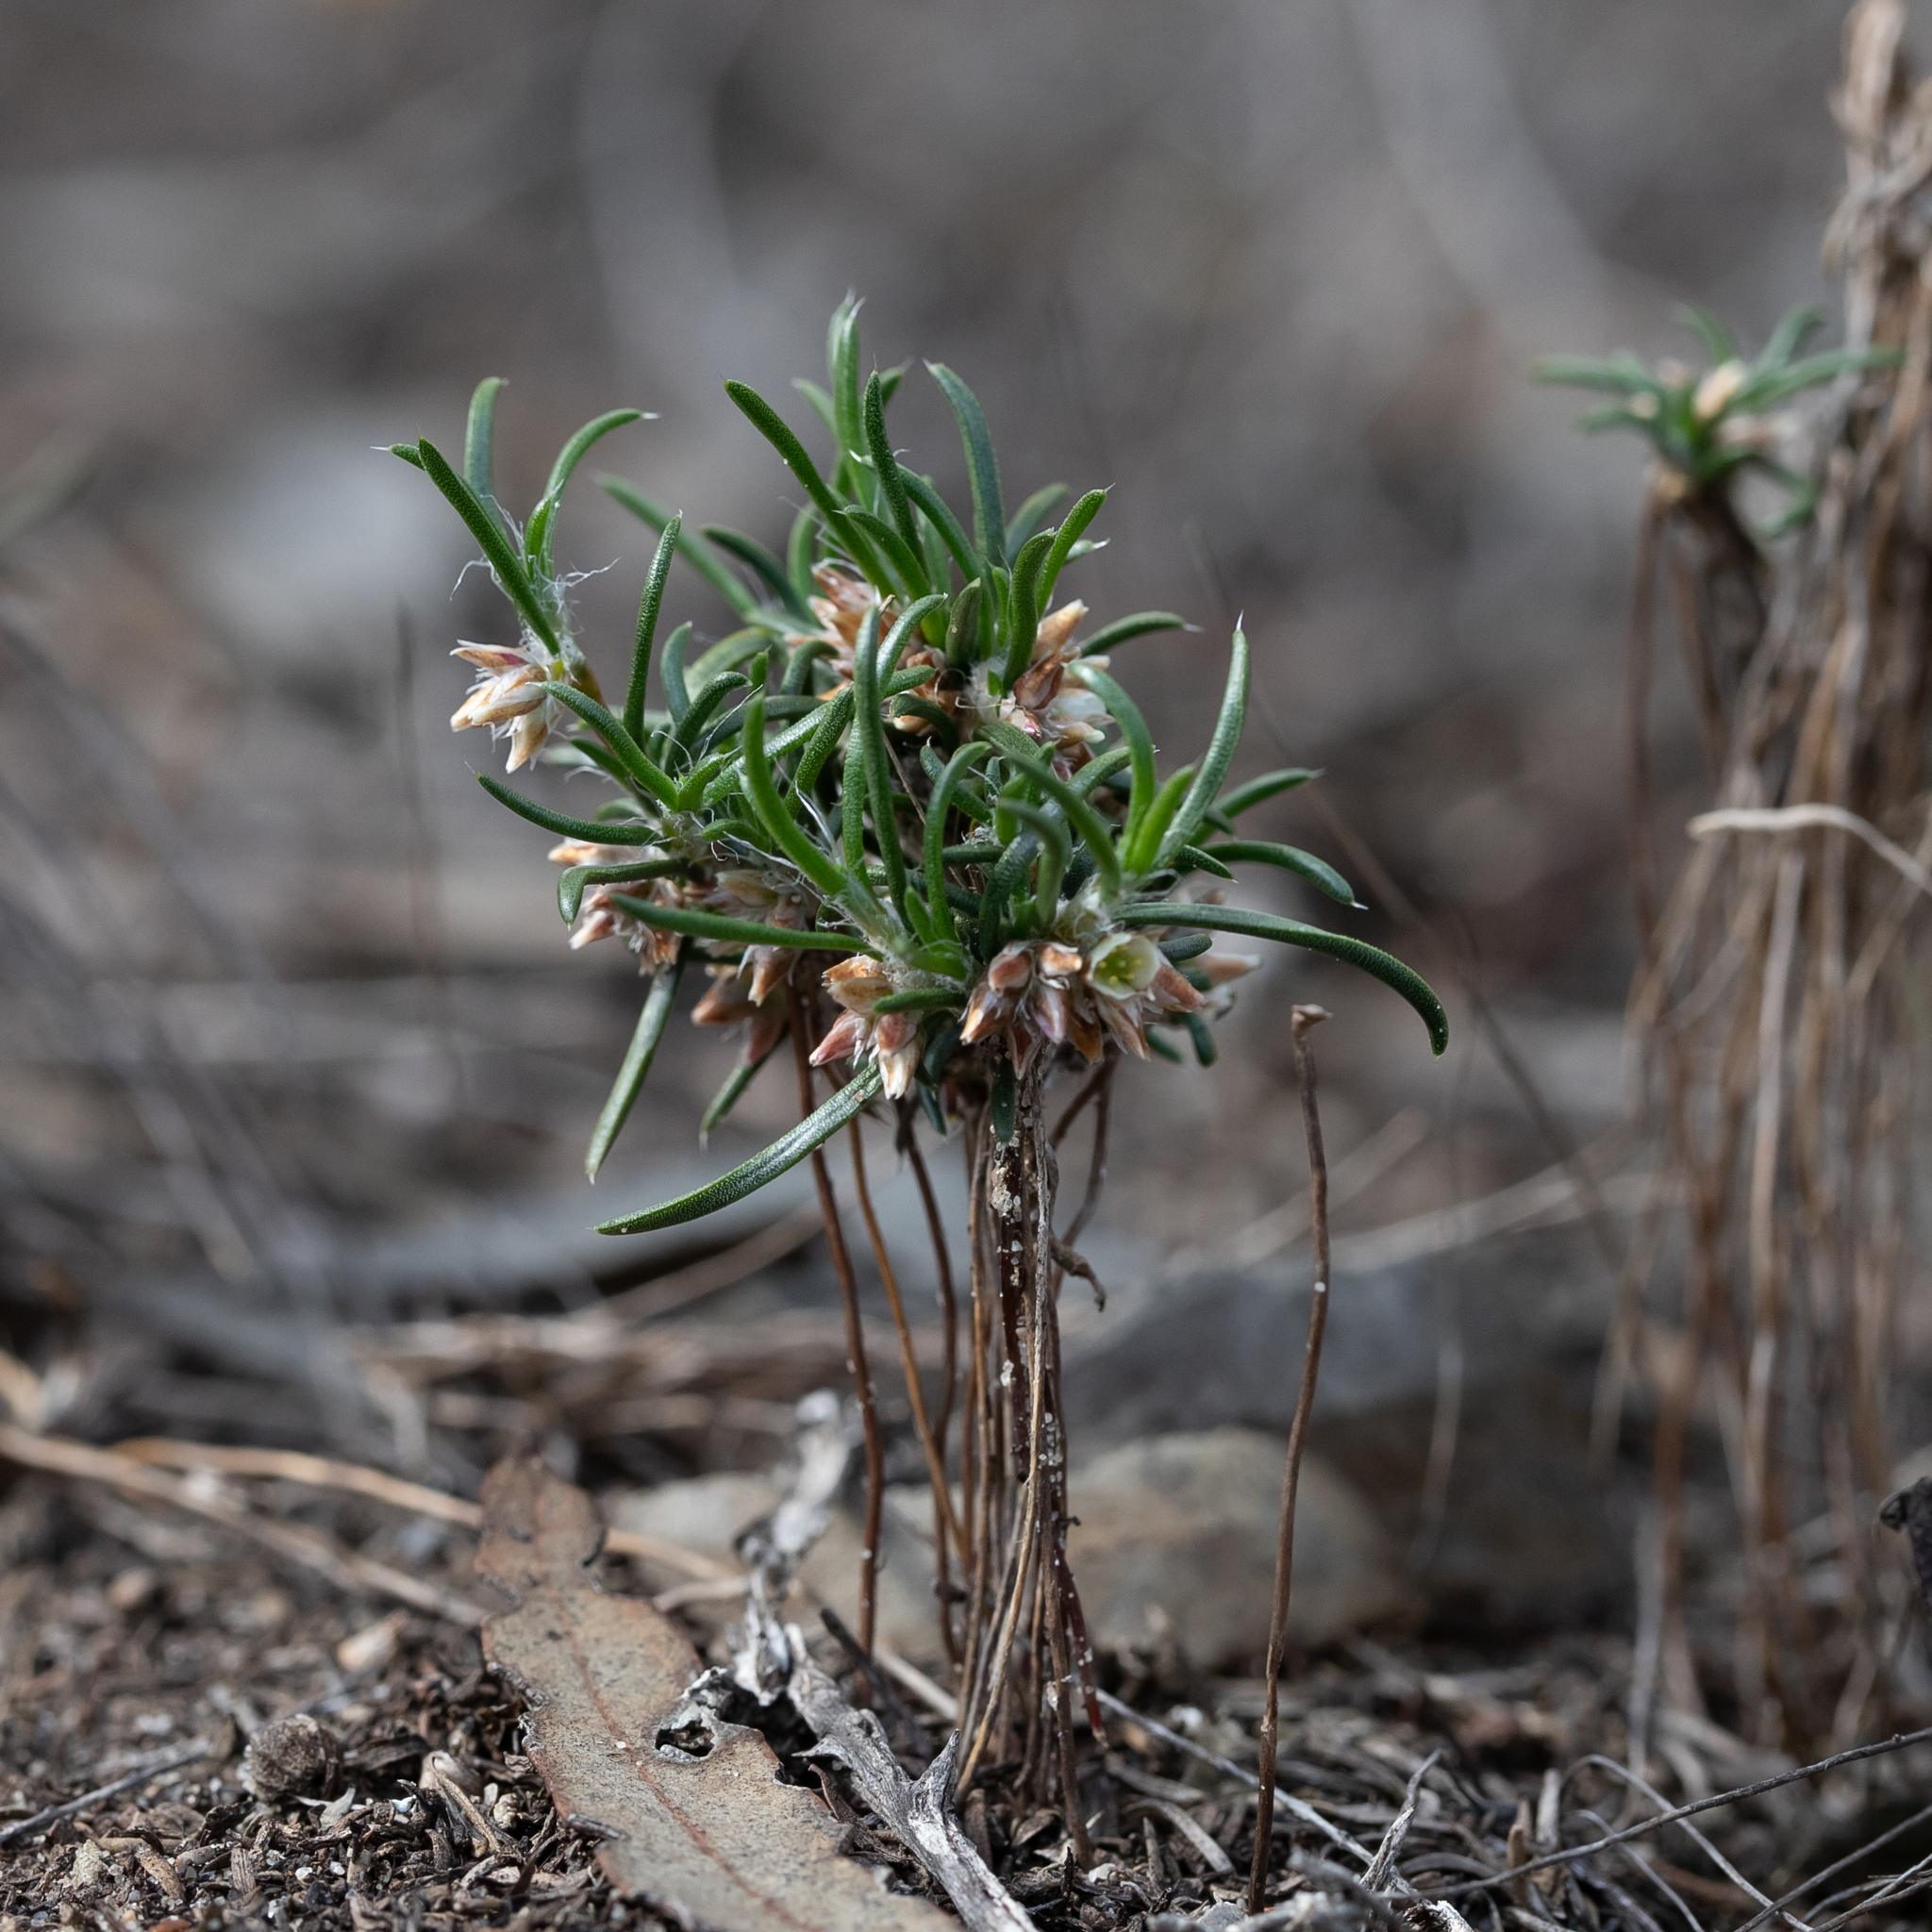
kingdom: Plantae
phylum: Tracheophyta
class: Liliopsida
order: Asparagales
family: Asparagaceae
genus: Laxmannia
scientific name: Laxmannia orientalis
